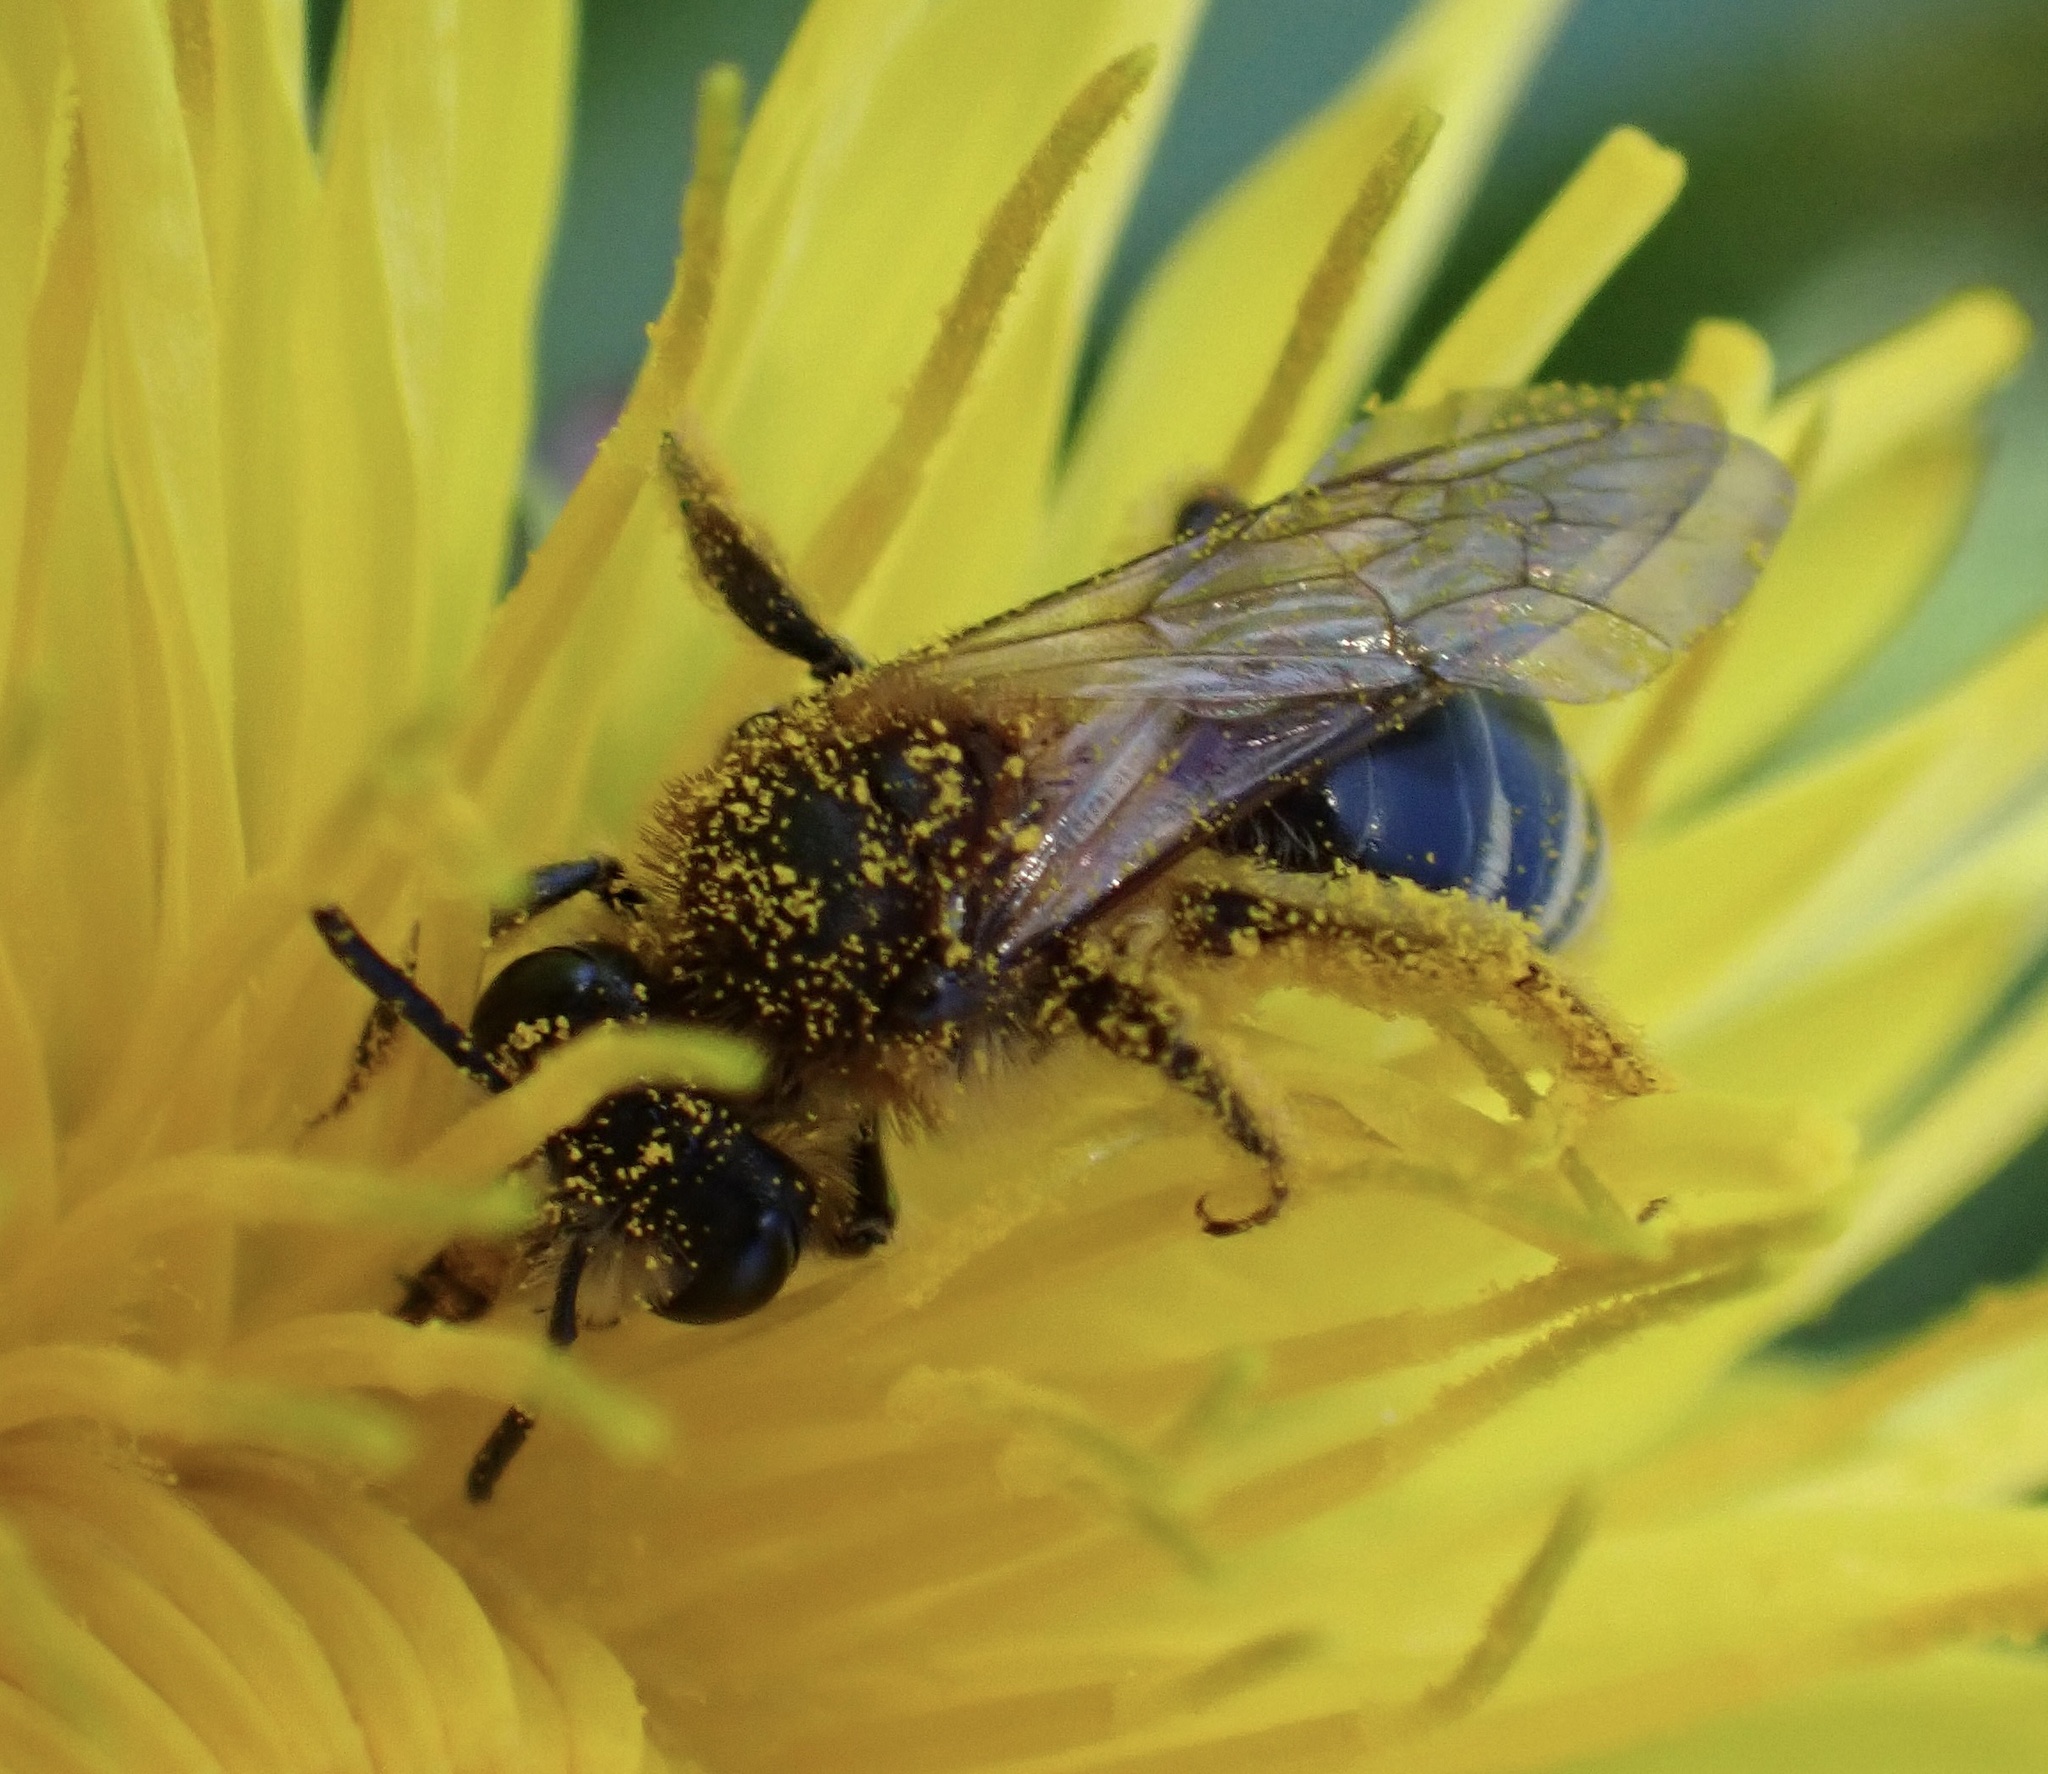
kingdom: Animalia
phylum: Arthropoda
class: Insecta
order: Hymenoptera
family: Andrenidae
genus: Andrena
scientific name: Andrena dorsata
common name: Short-fringed mining bee
